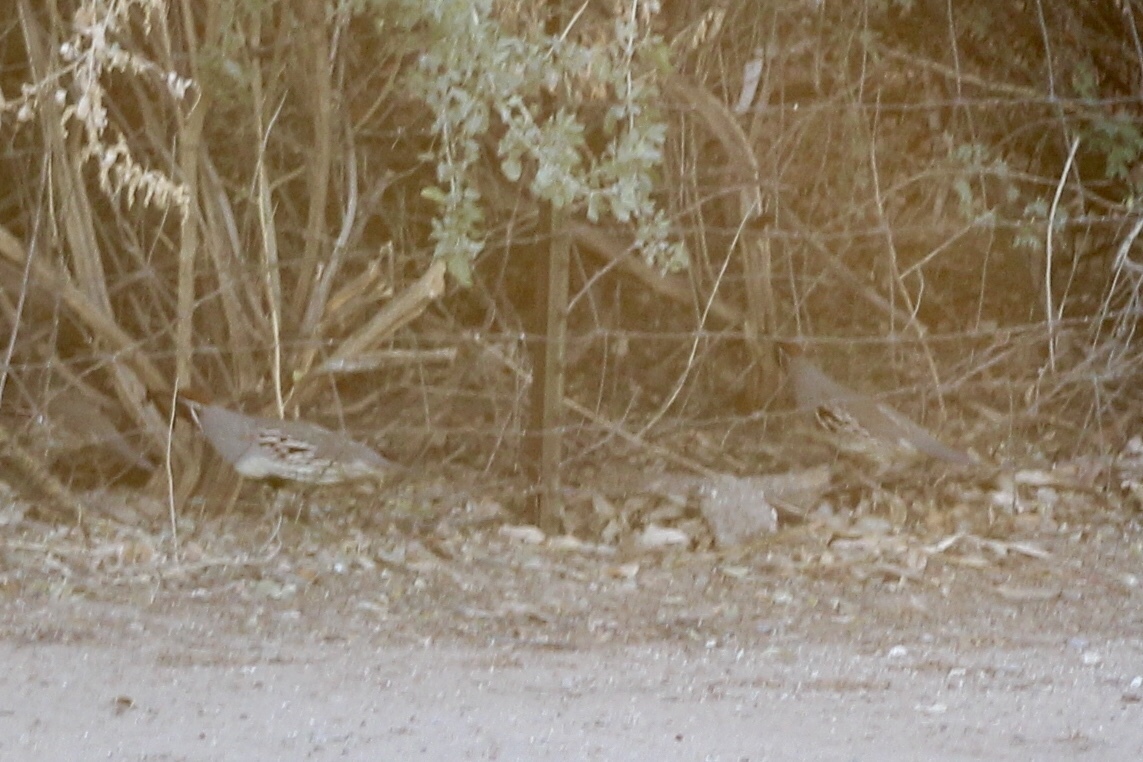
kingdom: Animalia
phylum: Chordata
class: Aves
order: Galliformes
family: Odontophoridae
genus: Callipepla
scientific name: Callipepla gambelii
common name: Gambel's quail
